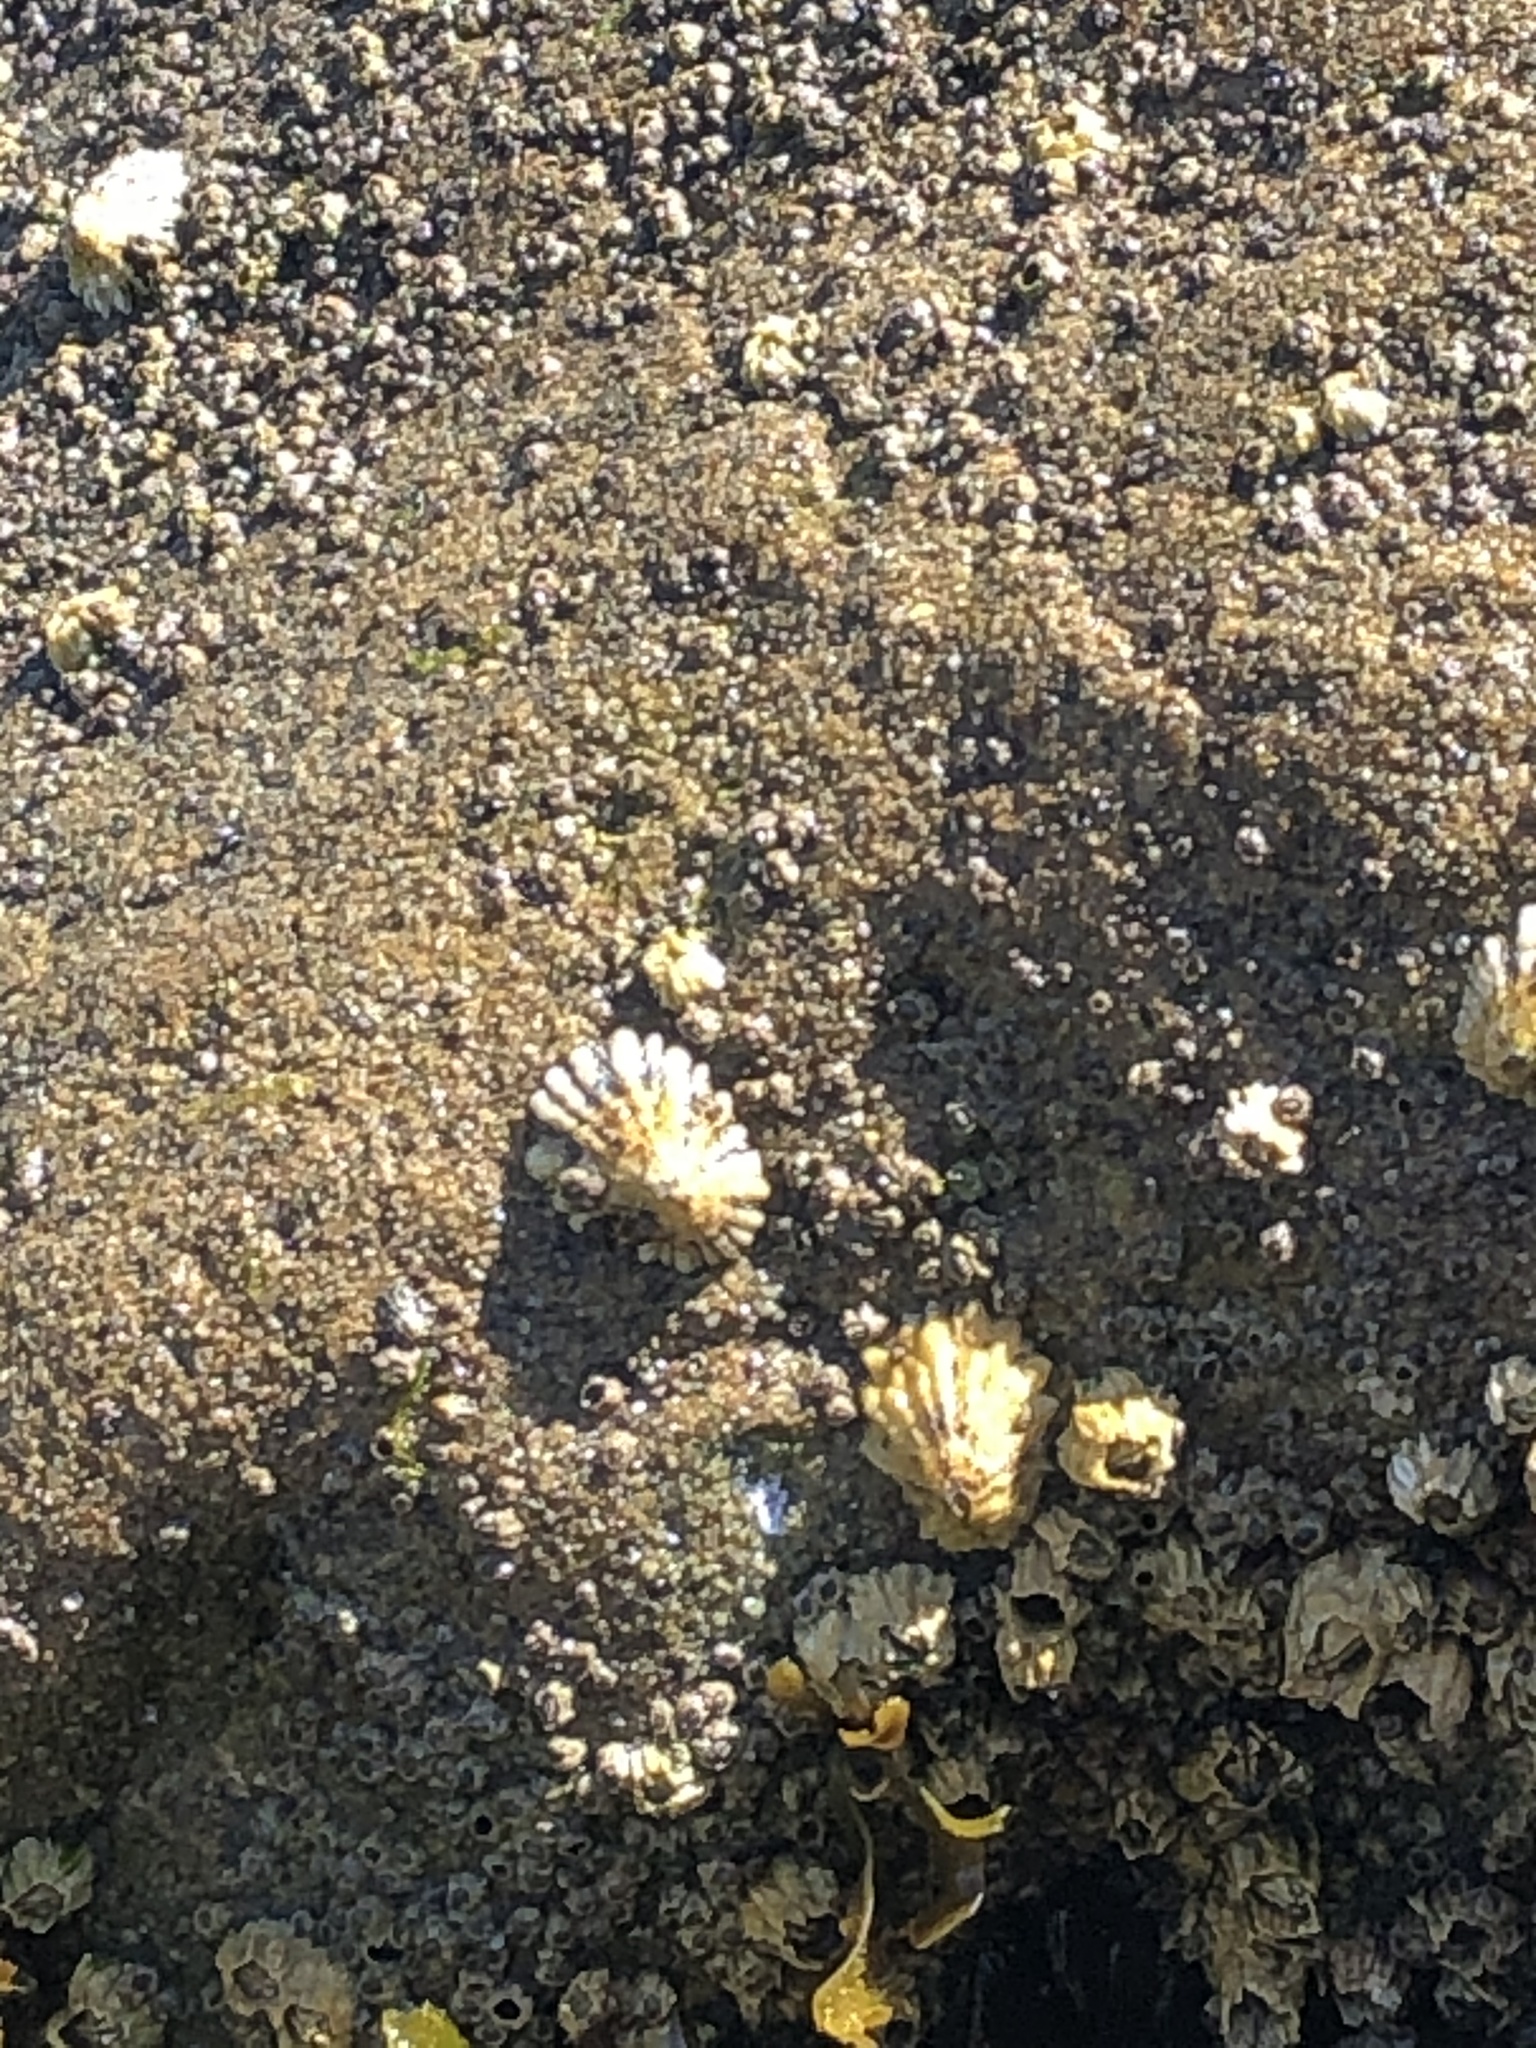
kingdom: Animalia
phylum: Mollusca
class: Gastropoda
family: Lottiidae
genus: Lottia
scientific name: Lottia scabra
